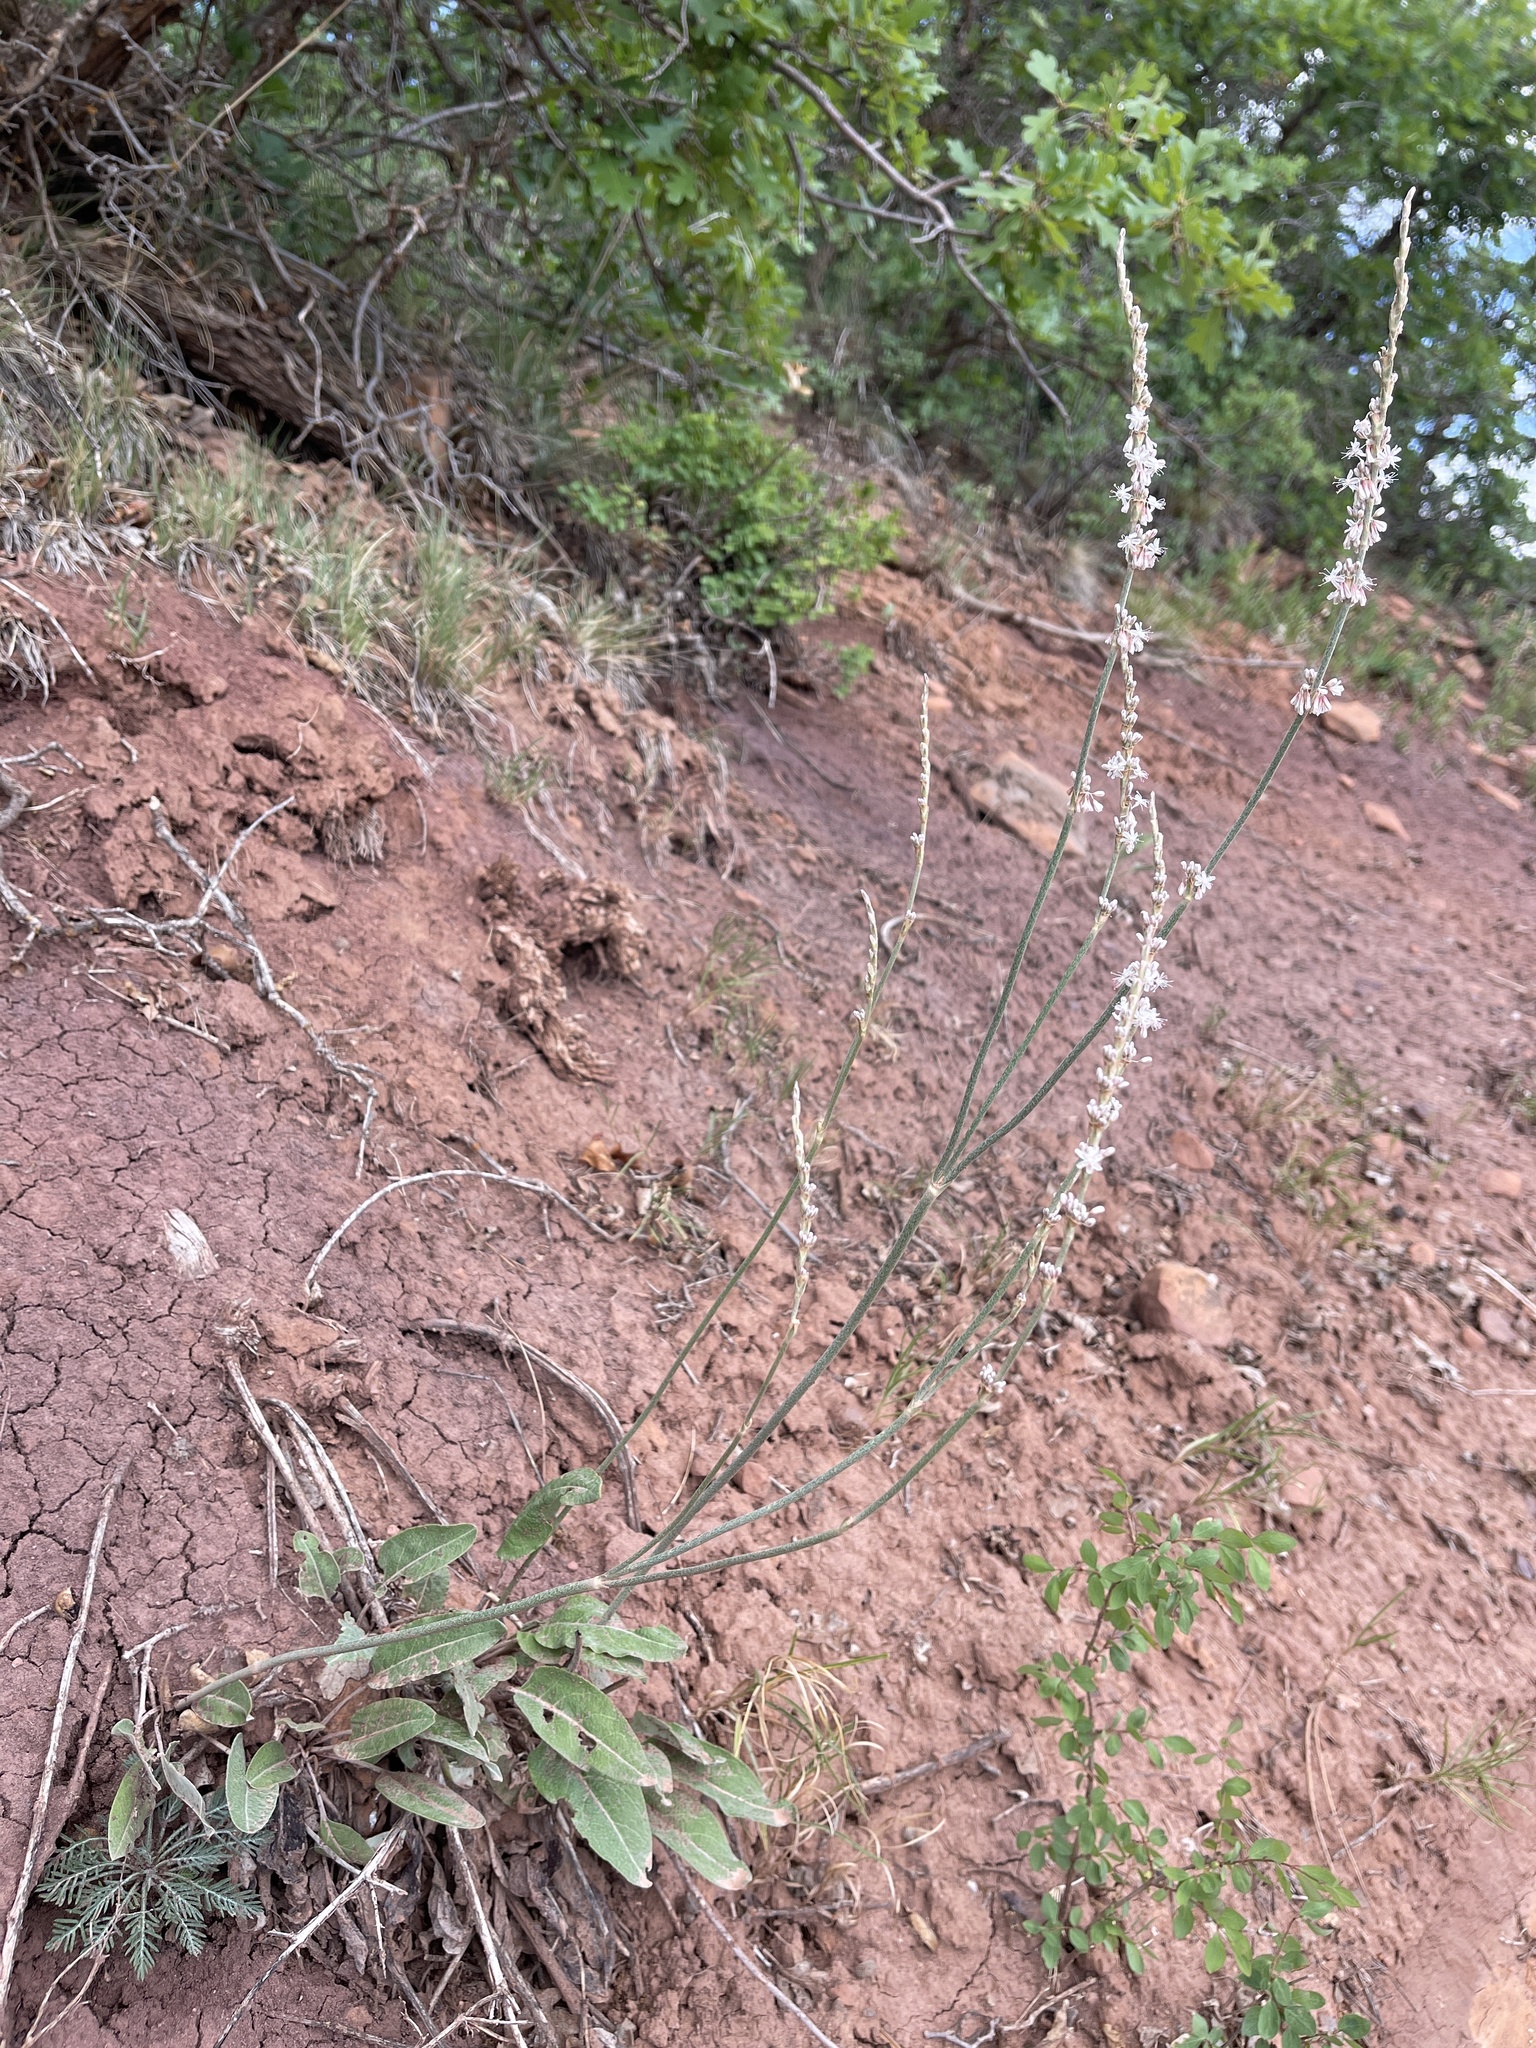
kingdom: Plantae
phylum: Tracheophyta
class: Magnoliopsida
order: Caryophyllales
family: Polygonaceae
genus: Eriogonum
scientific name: Eriogonum racemosum
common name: Redroot wild buckwheat
